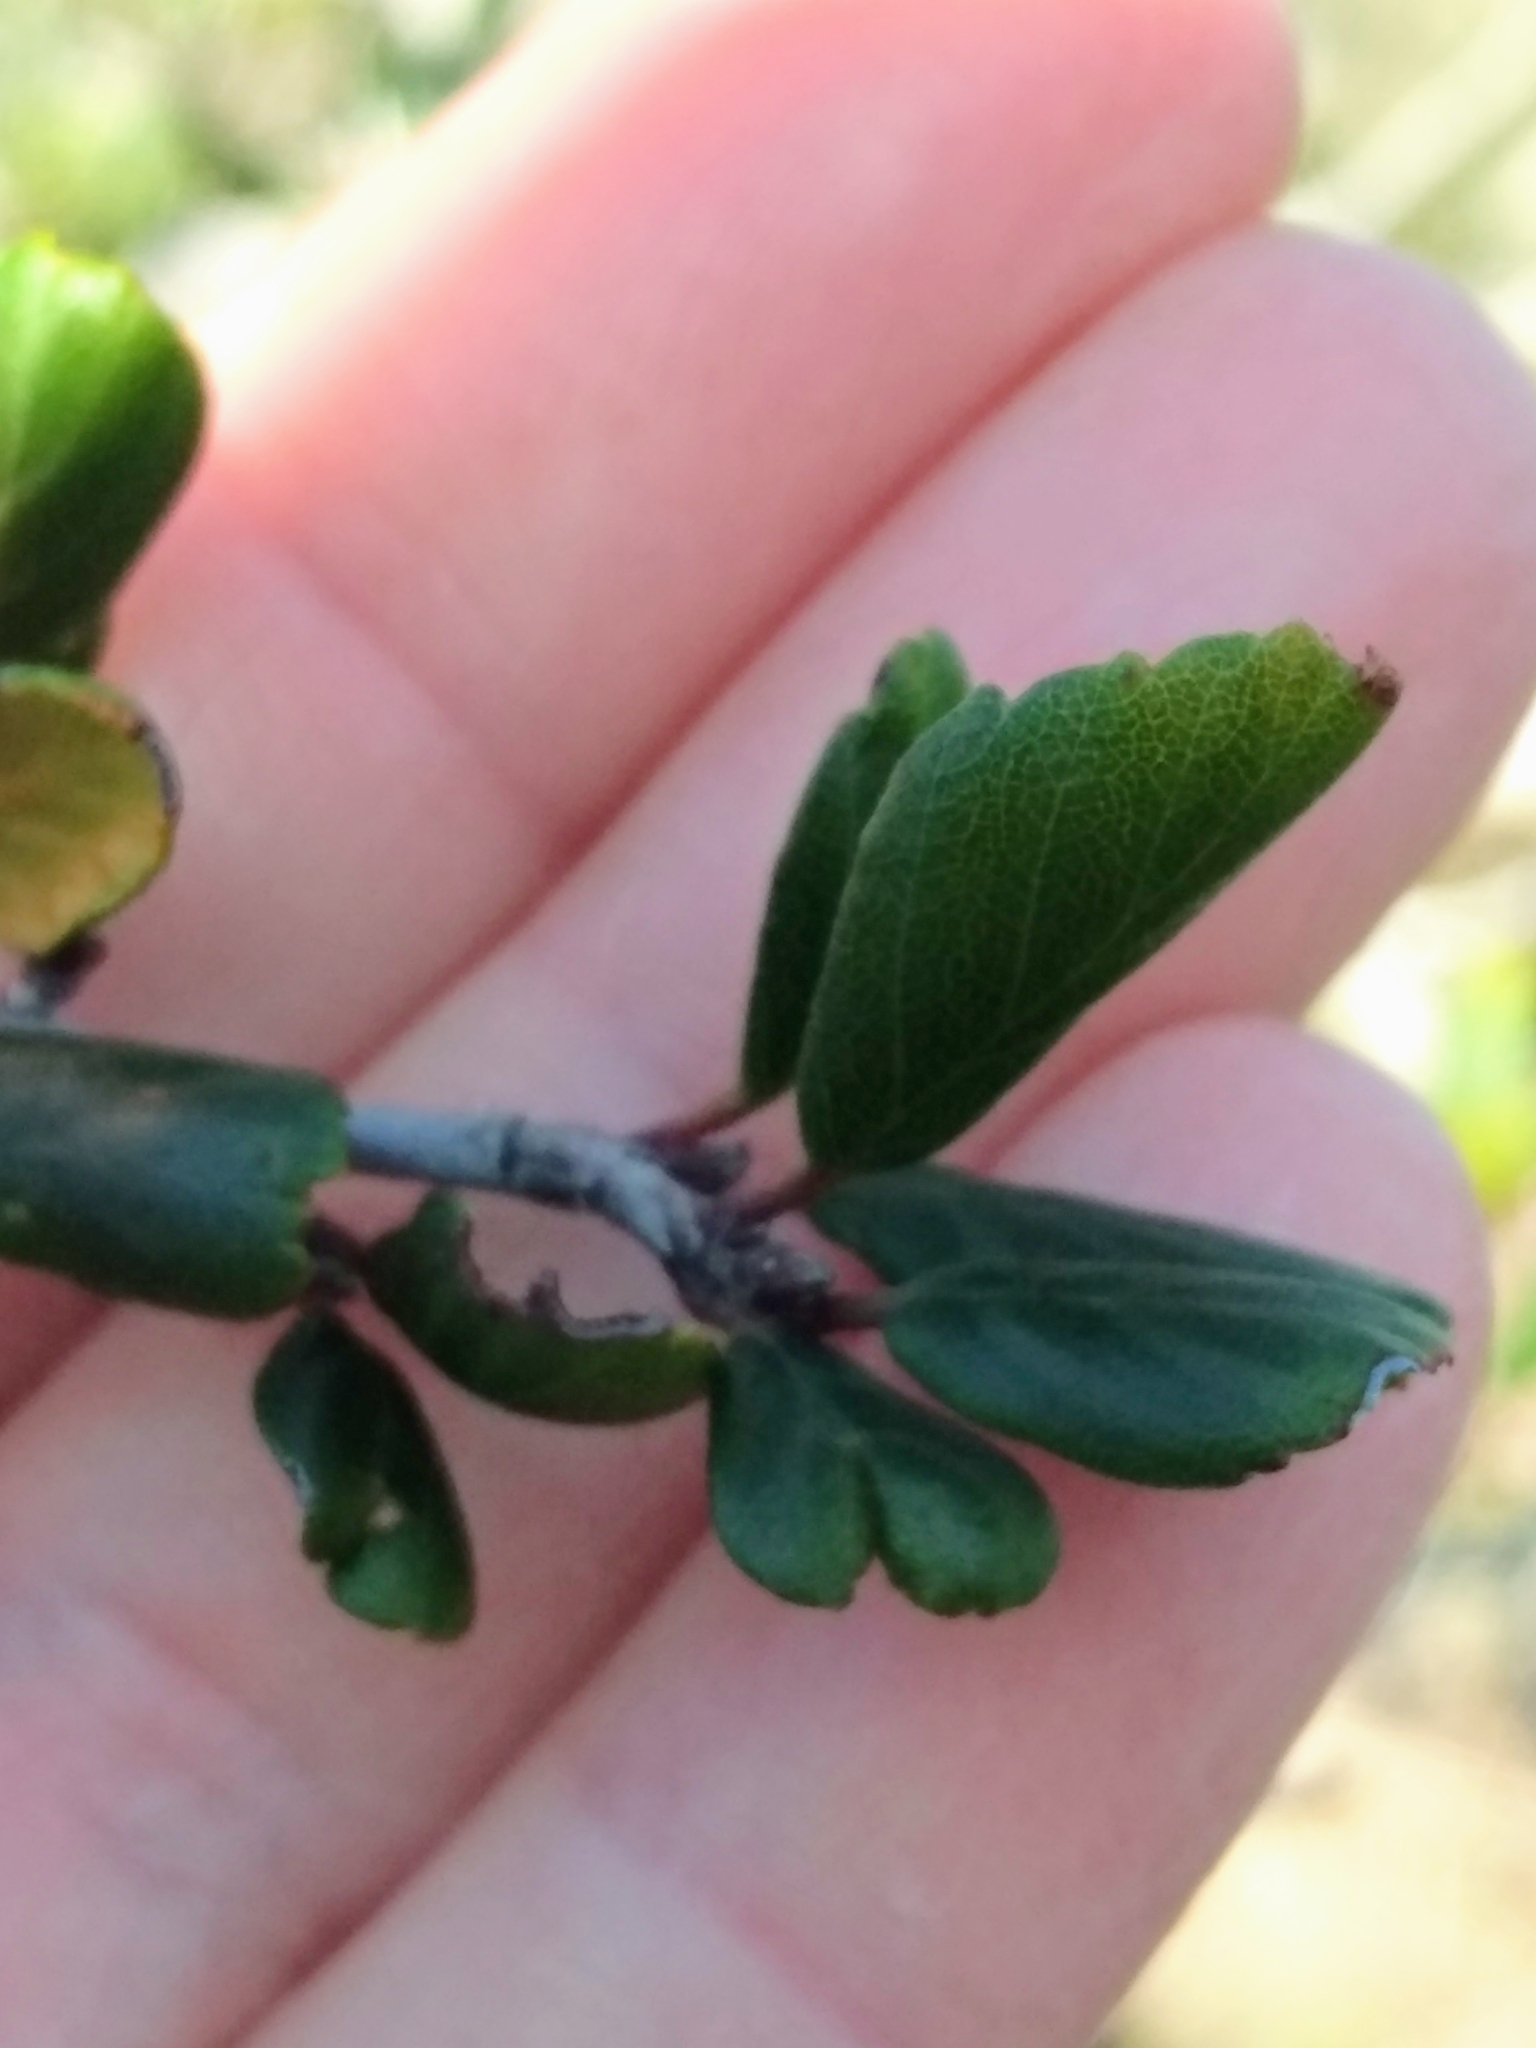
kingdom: Plantae
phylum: Tracheophyta
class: Magnoliopsida
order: Rosales
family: Rosaceae
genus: Cercocarpus
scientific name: Cercocarpus montanus
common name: Alder-leaf cercocarpus
